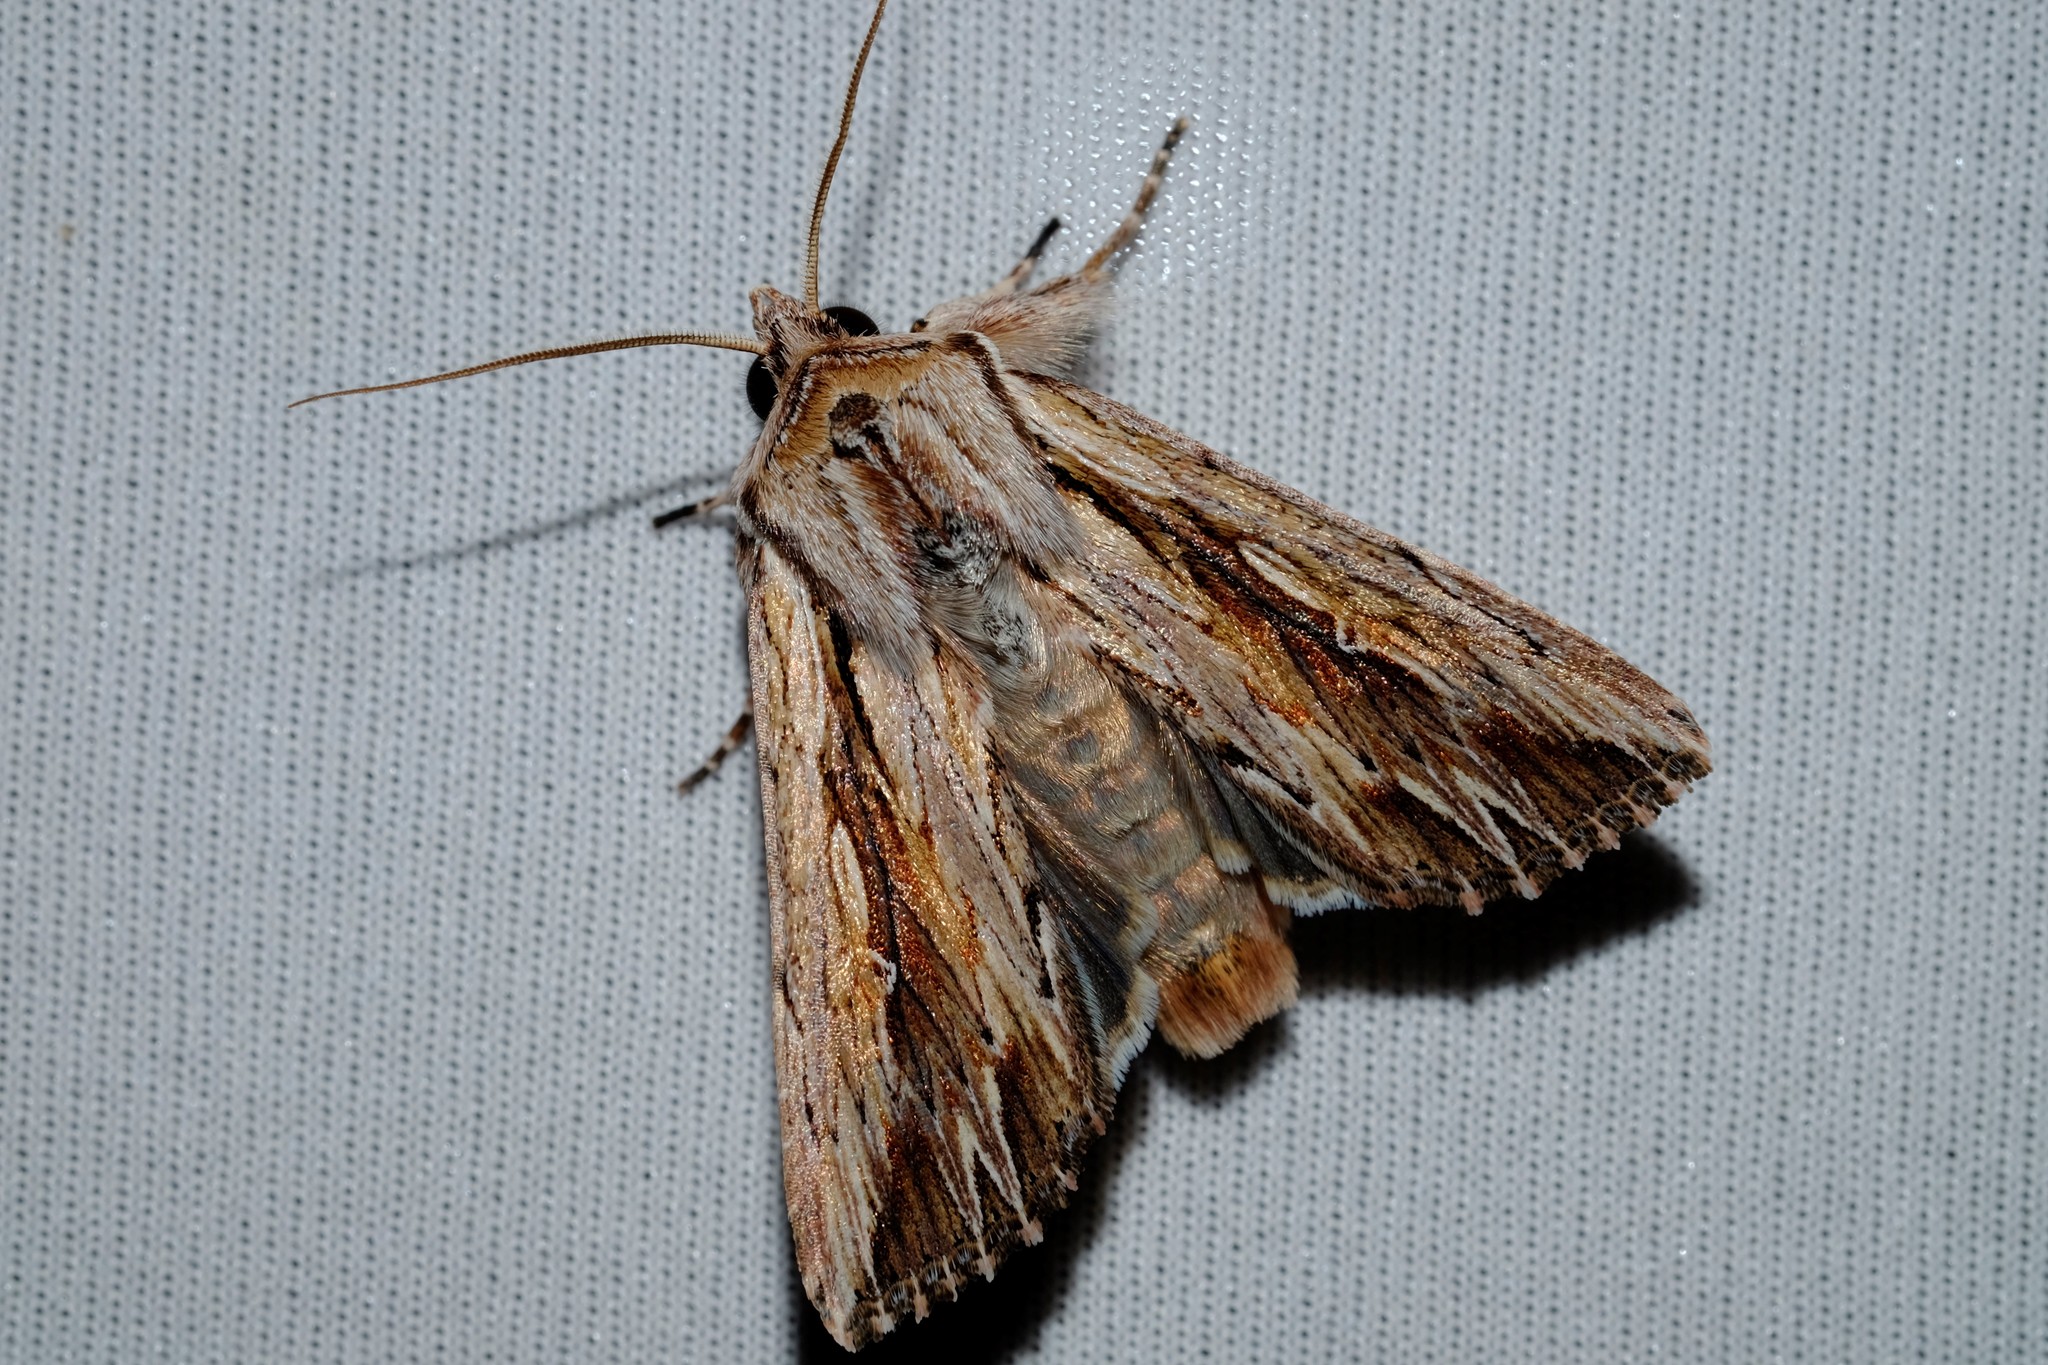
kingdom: Animalia
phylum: Arthropoda
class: Insecta
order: Lepidoptera
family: Noctuidae
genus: Persectania
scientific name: Persectania ewingii
